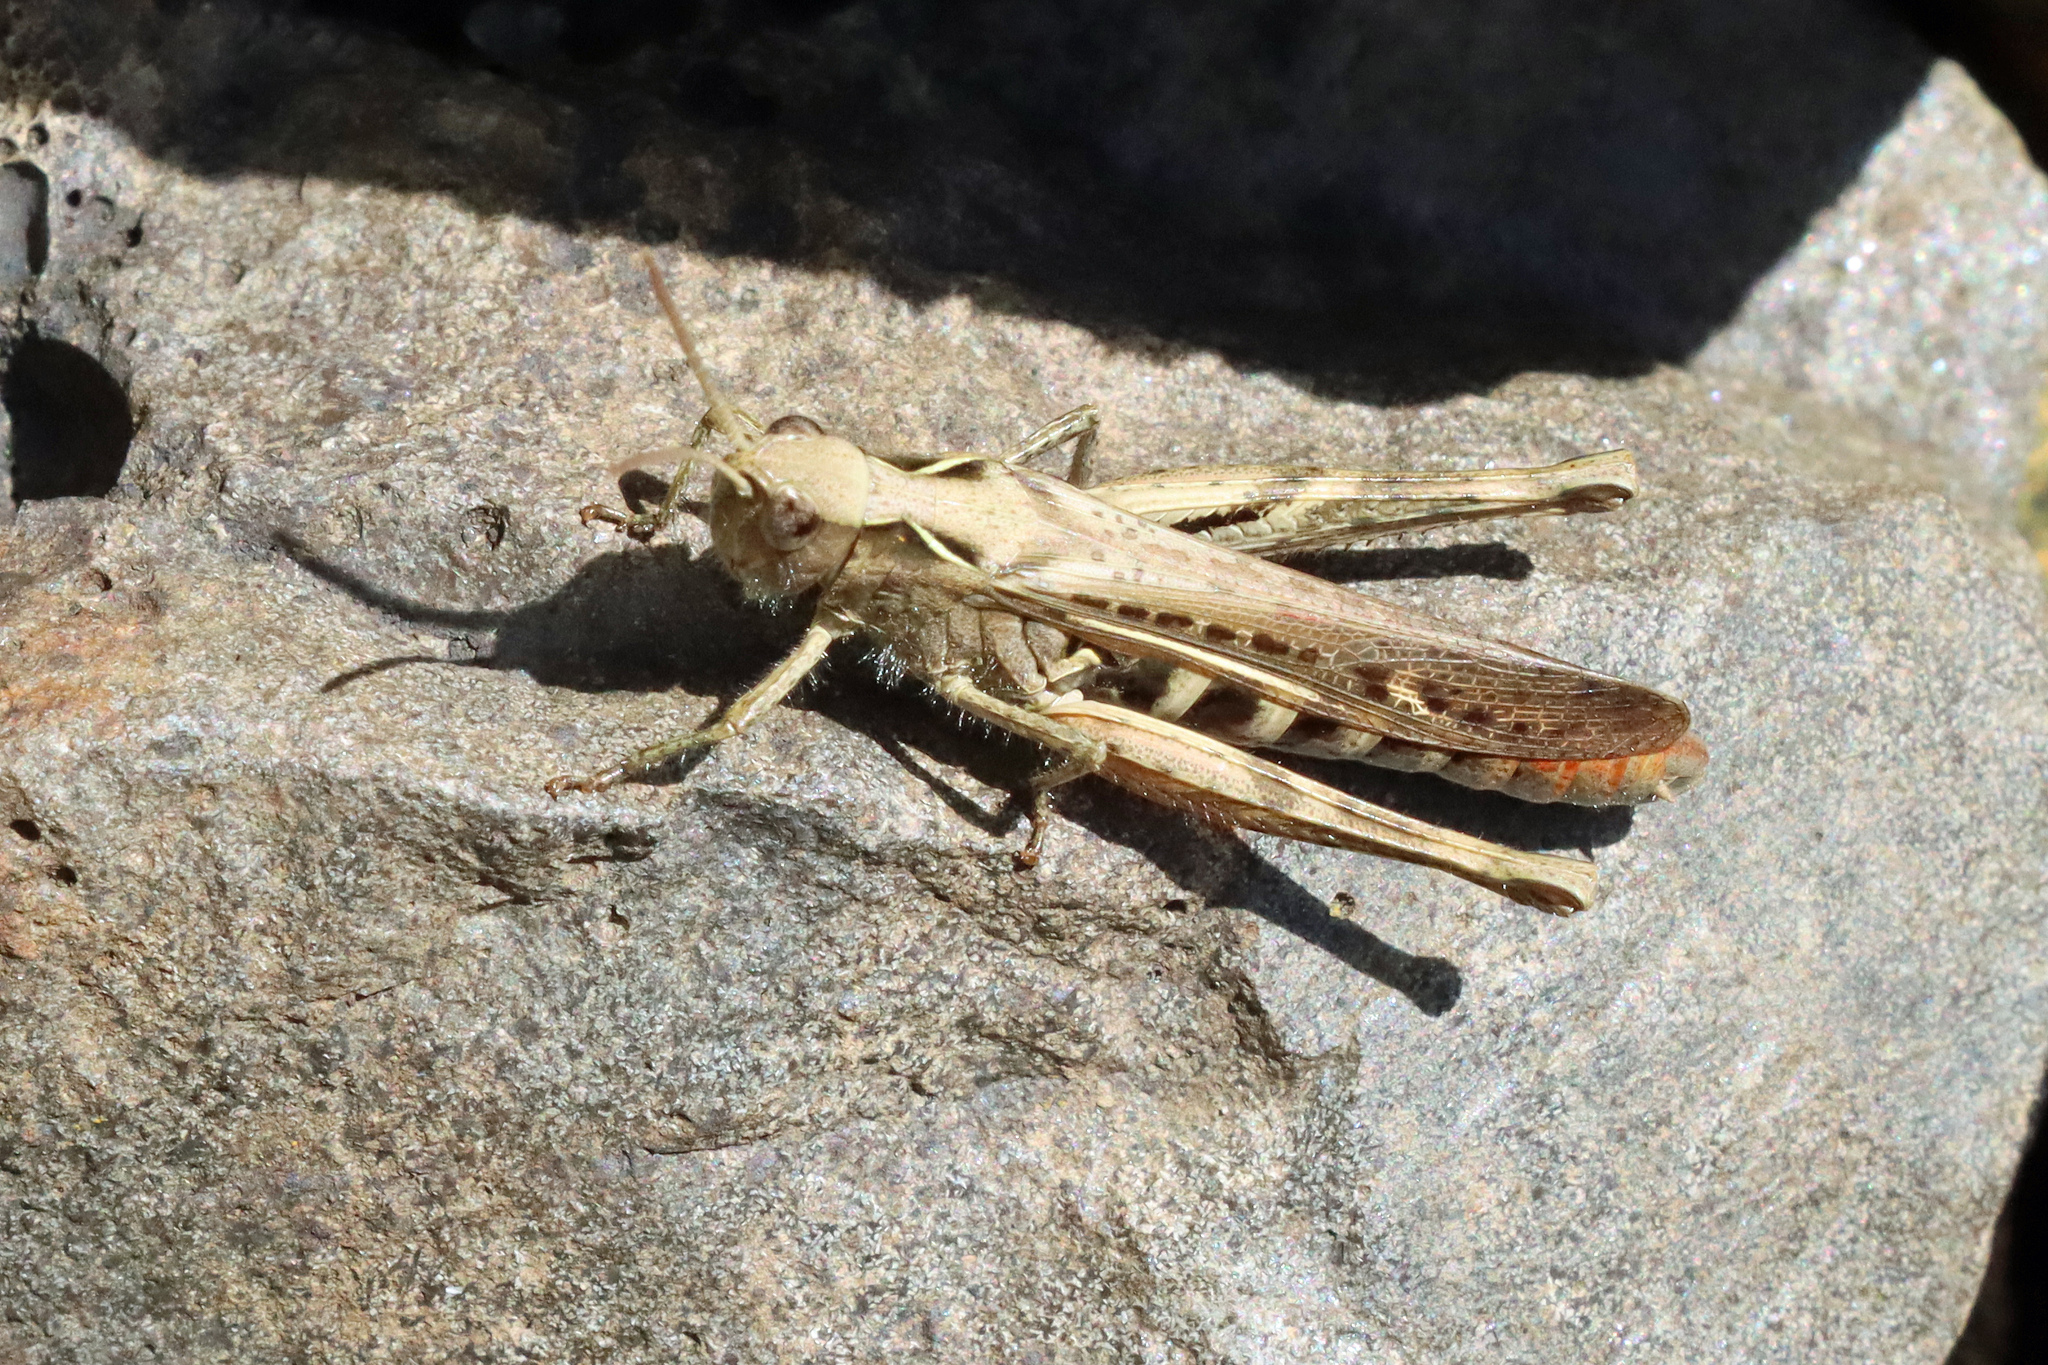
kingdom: Animalia
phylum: Arthropoda
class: Insecta
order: Orthoptera
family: Acrididae
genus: Chorthippus
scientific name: Chorthippus brunneus
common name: Field grasshopper
